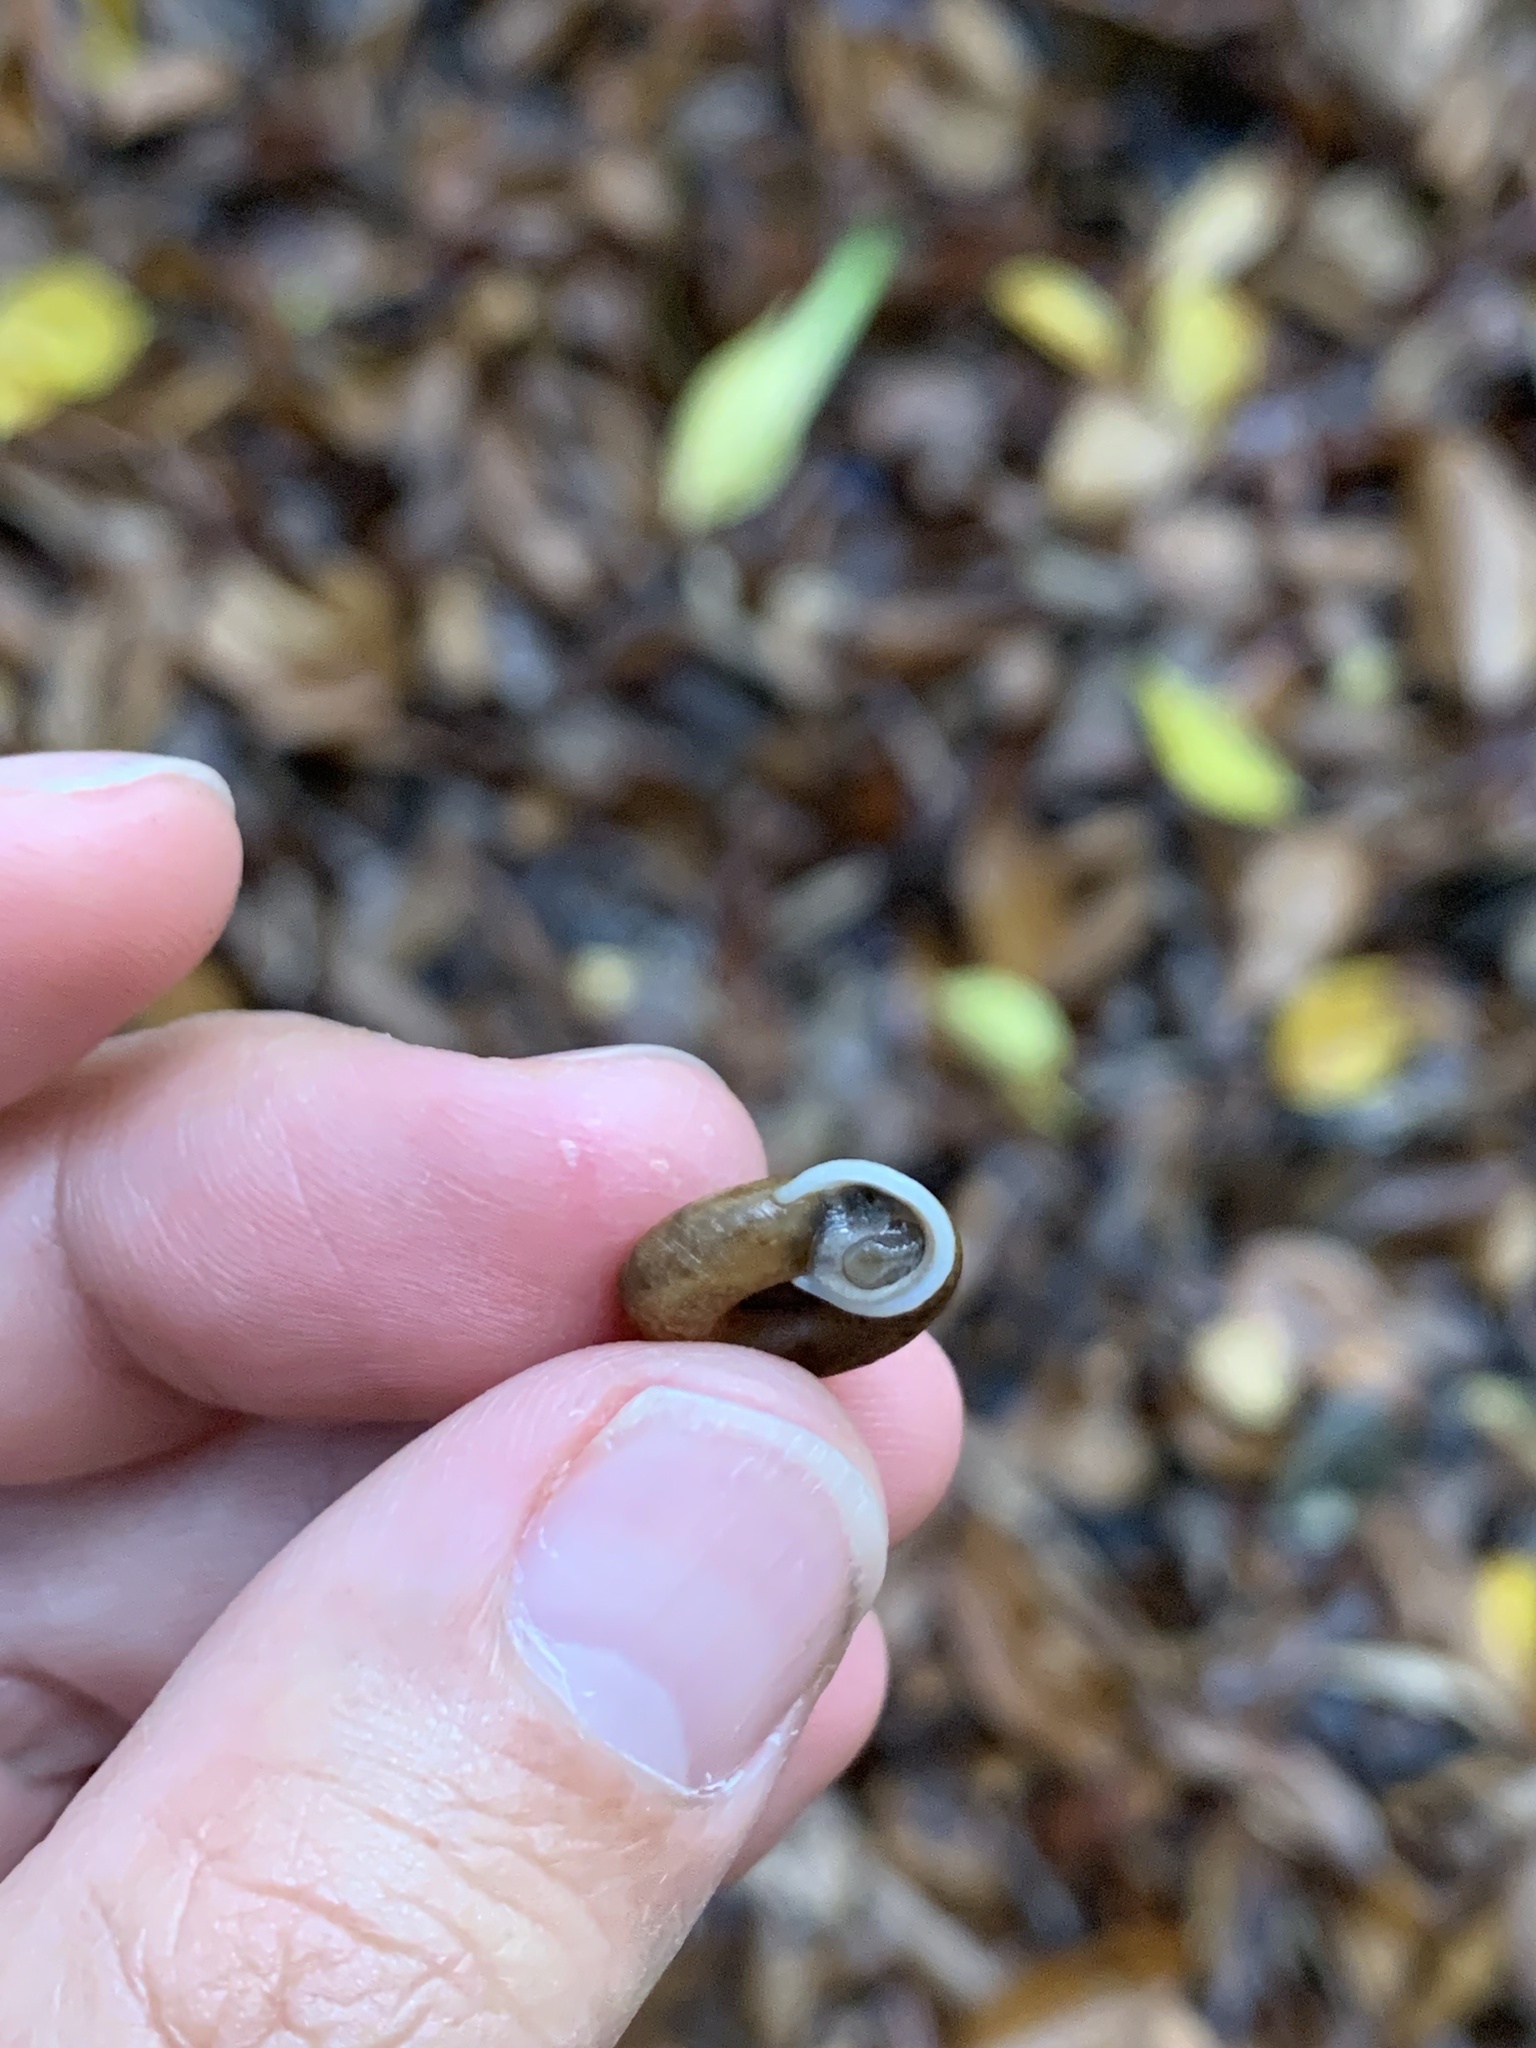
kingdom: Animalia
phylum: Mollusca
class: Gastropoda
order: Stylommatophora
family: Camaenidae
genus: Aegista
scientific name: Aegista kobensis
